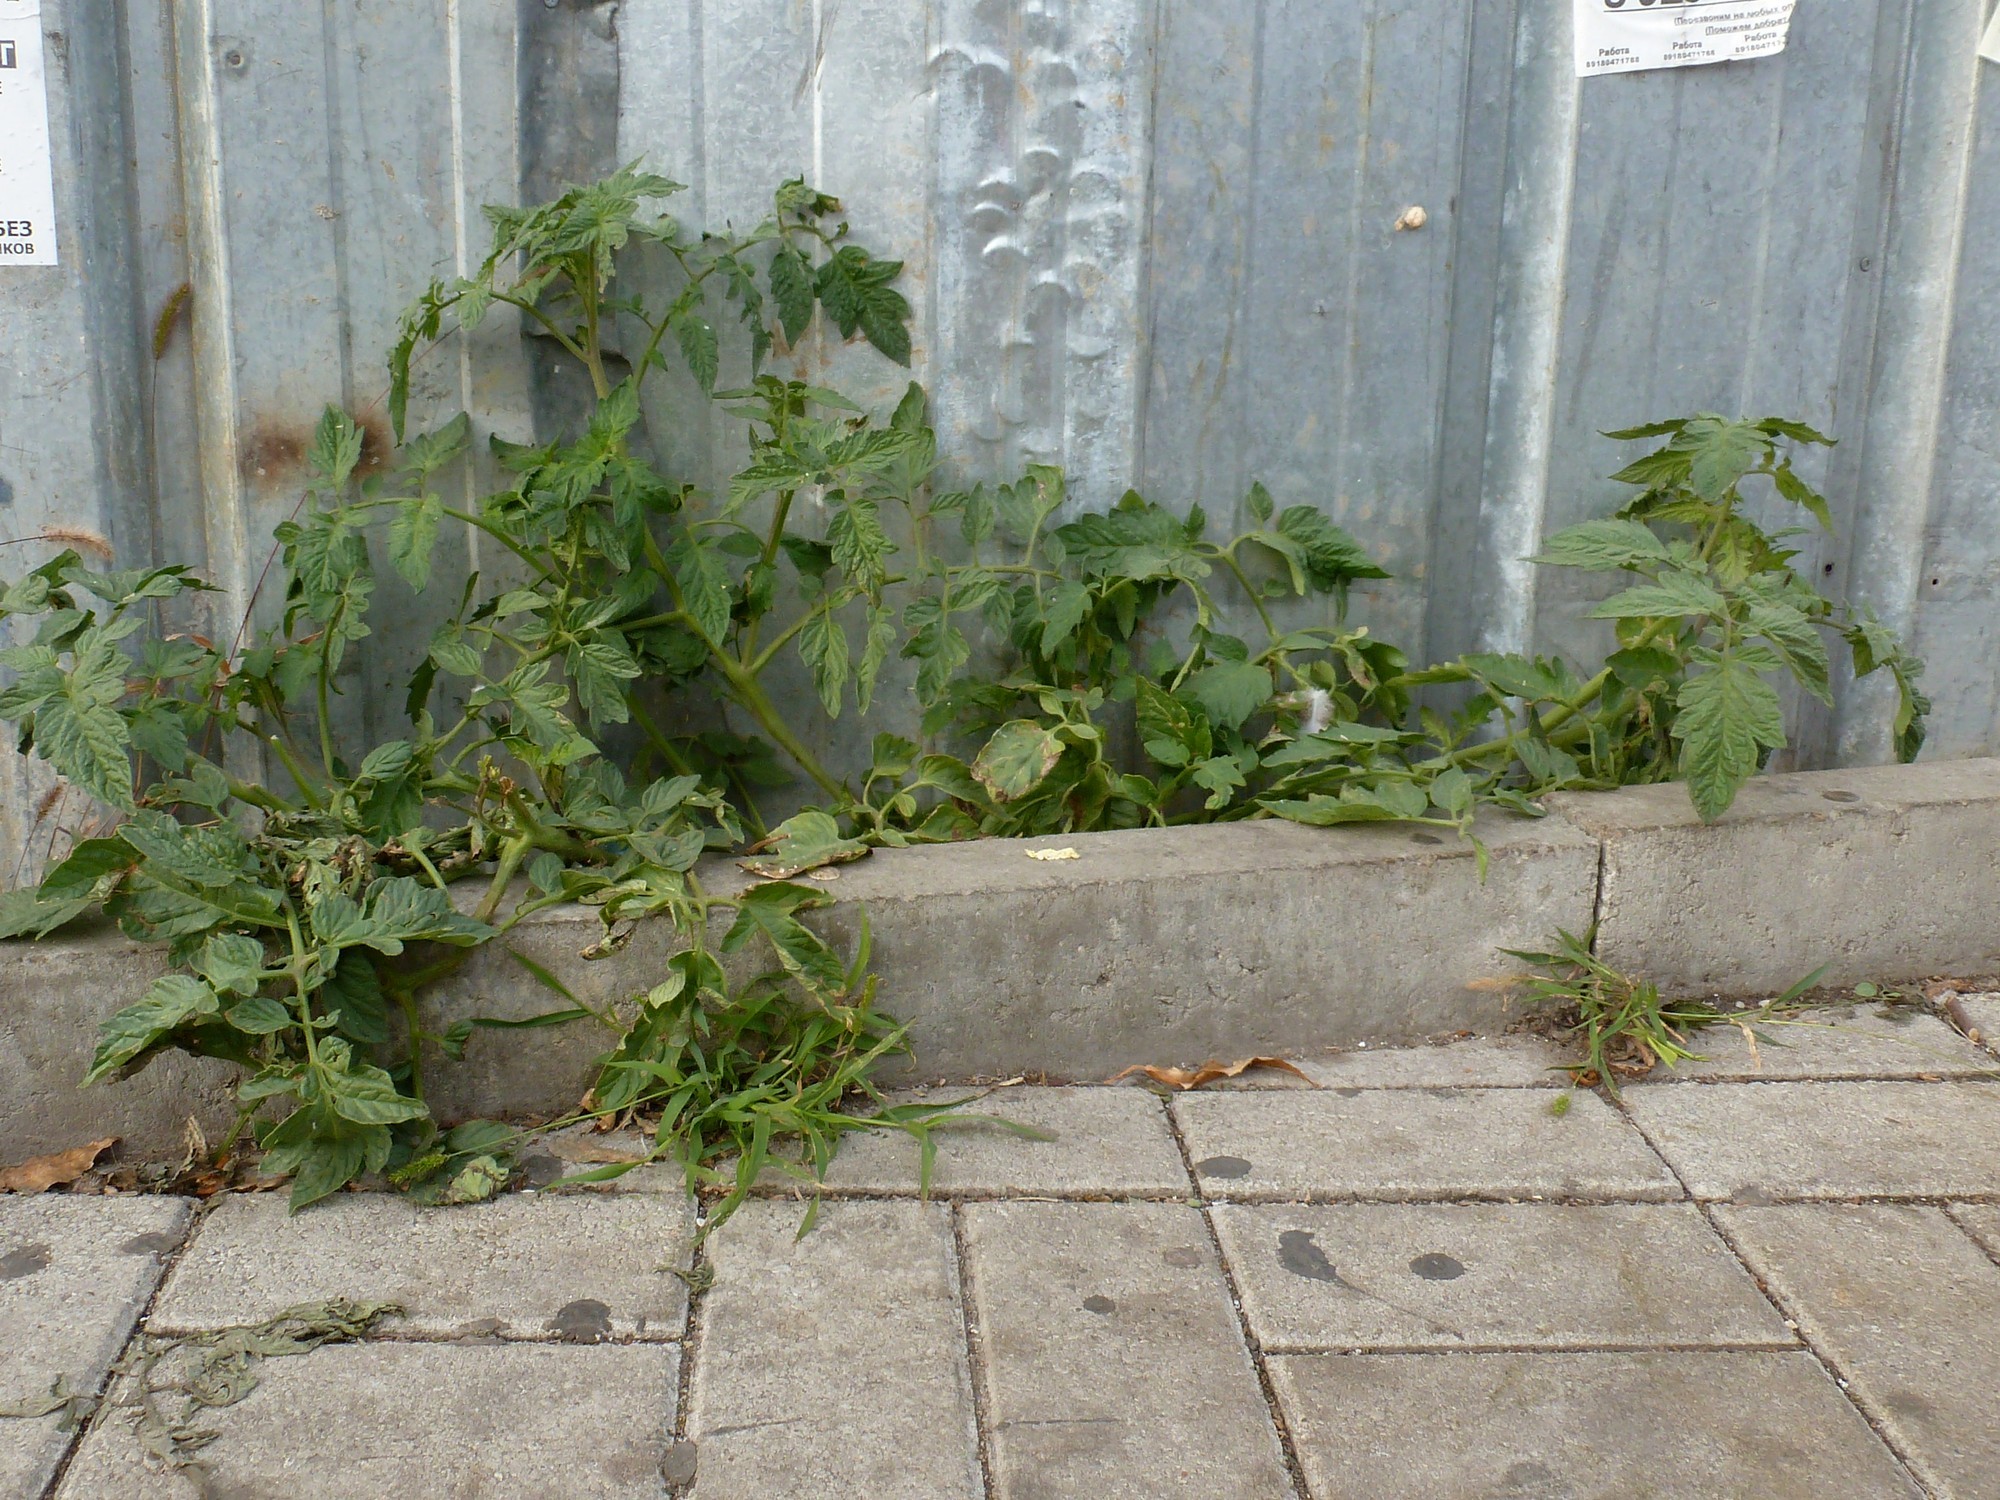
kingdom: Plantae
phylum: Tracheophyta
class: Magnoliopsida
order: Solanales
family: Solanaceae
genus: Solanum
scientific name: Solanum lycopersicum
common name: Garden tomato
